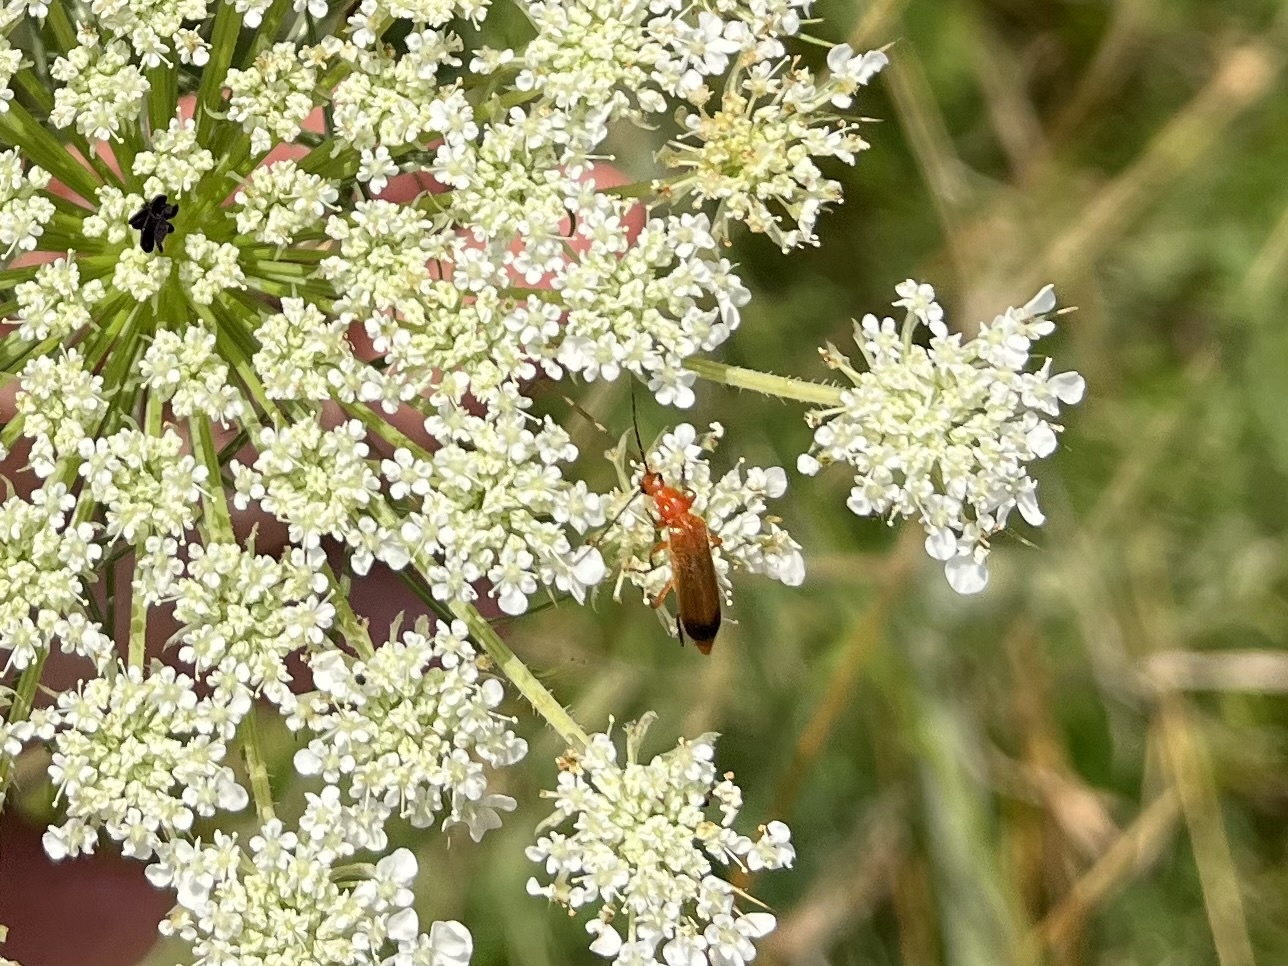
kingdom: Animalia
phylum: Arthropoda
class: Insecta
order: Coleoptera
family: Cantharidae
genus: Rhagonycha
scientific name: Rhagonycha fulva
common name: Common red soldier beetle
